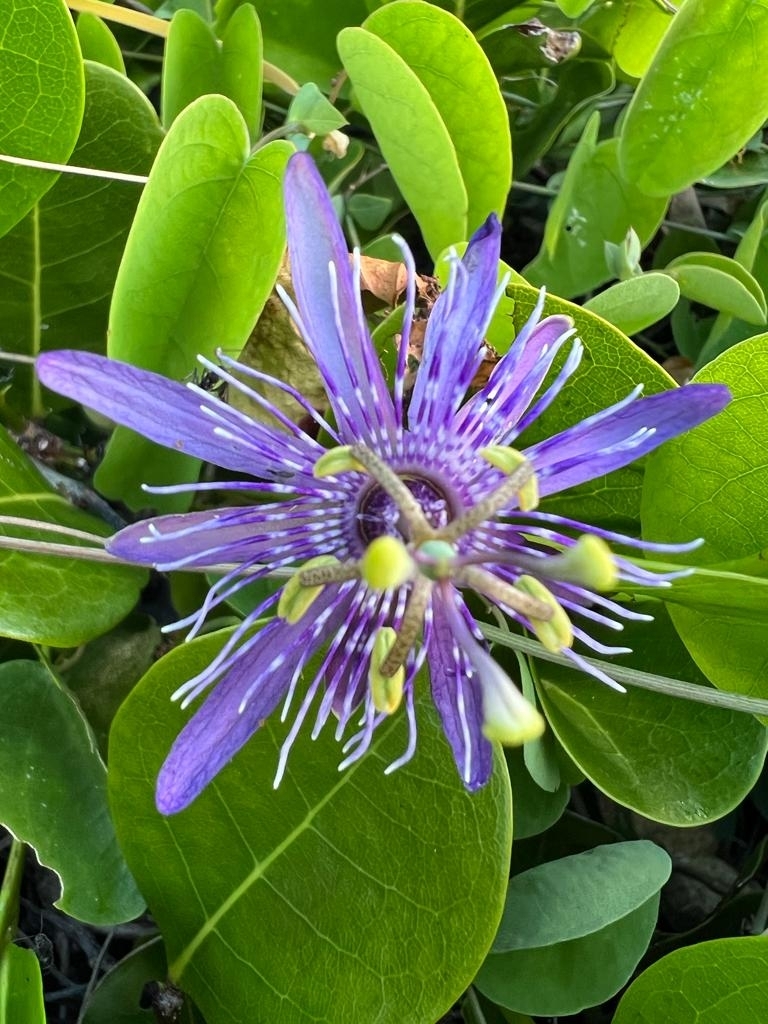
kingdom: Plantae
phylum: Tracheophyta
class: Magnoliopsida
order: Malpighiales
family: Passifloraceae
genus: Passiflora
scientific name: Passiflora subrotunda
